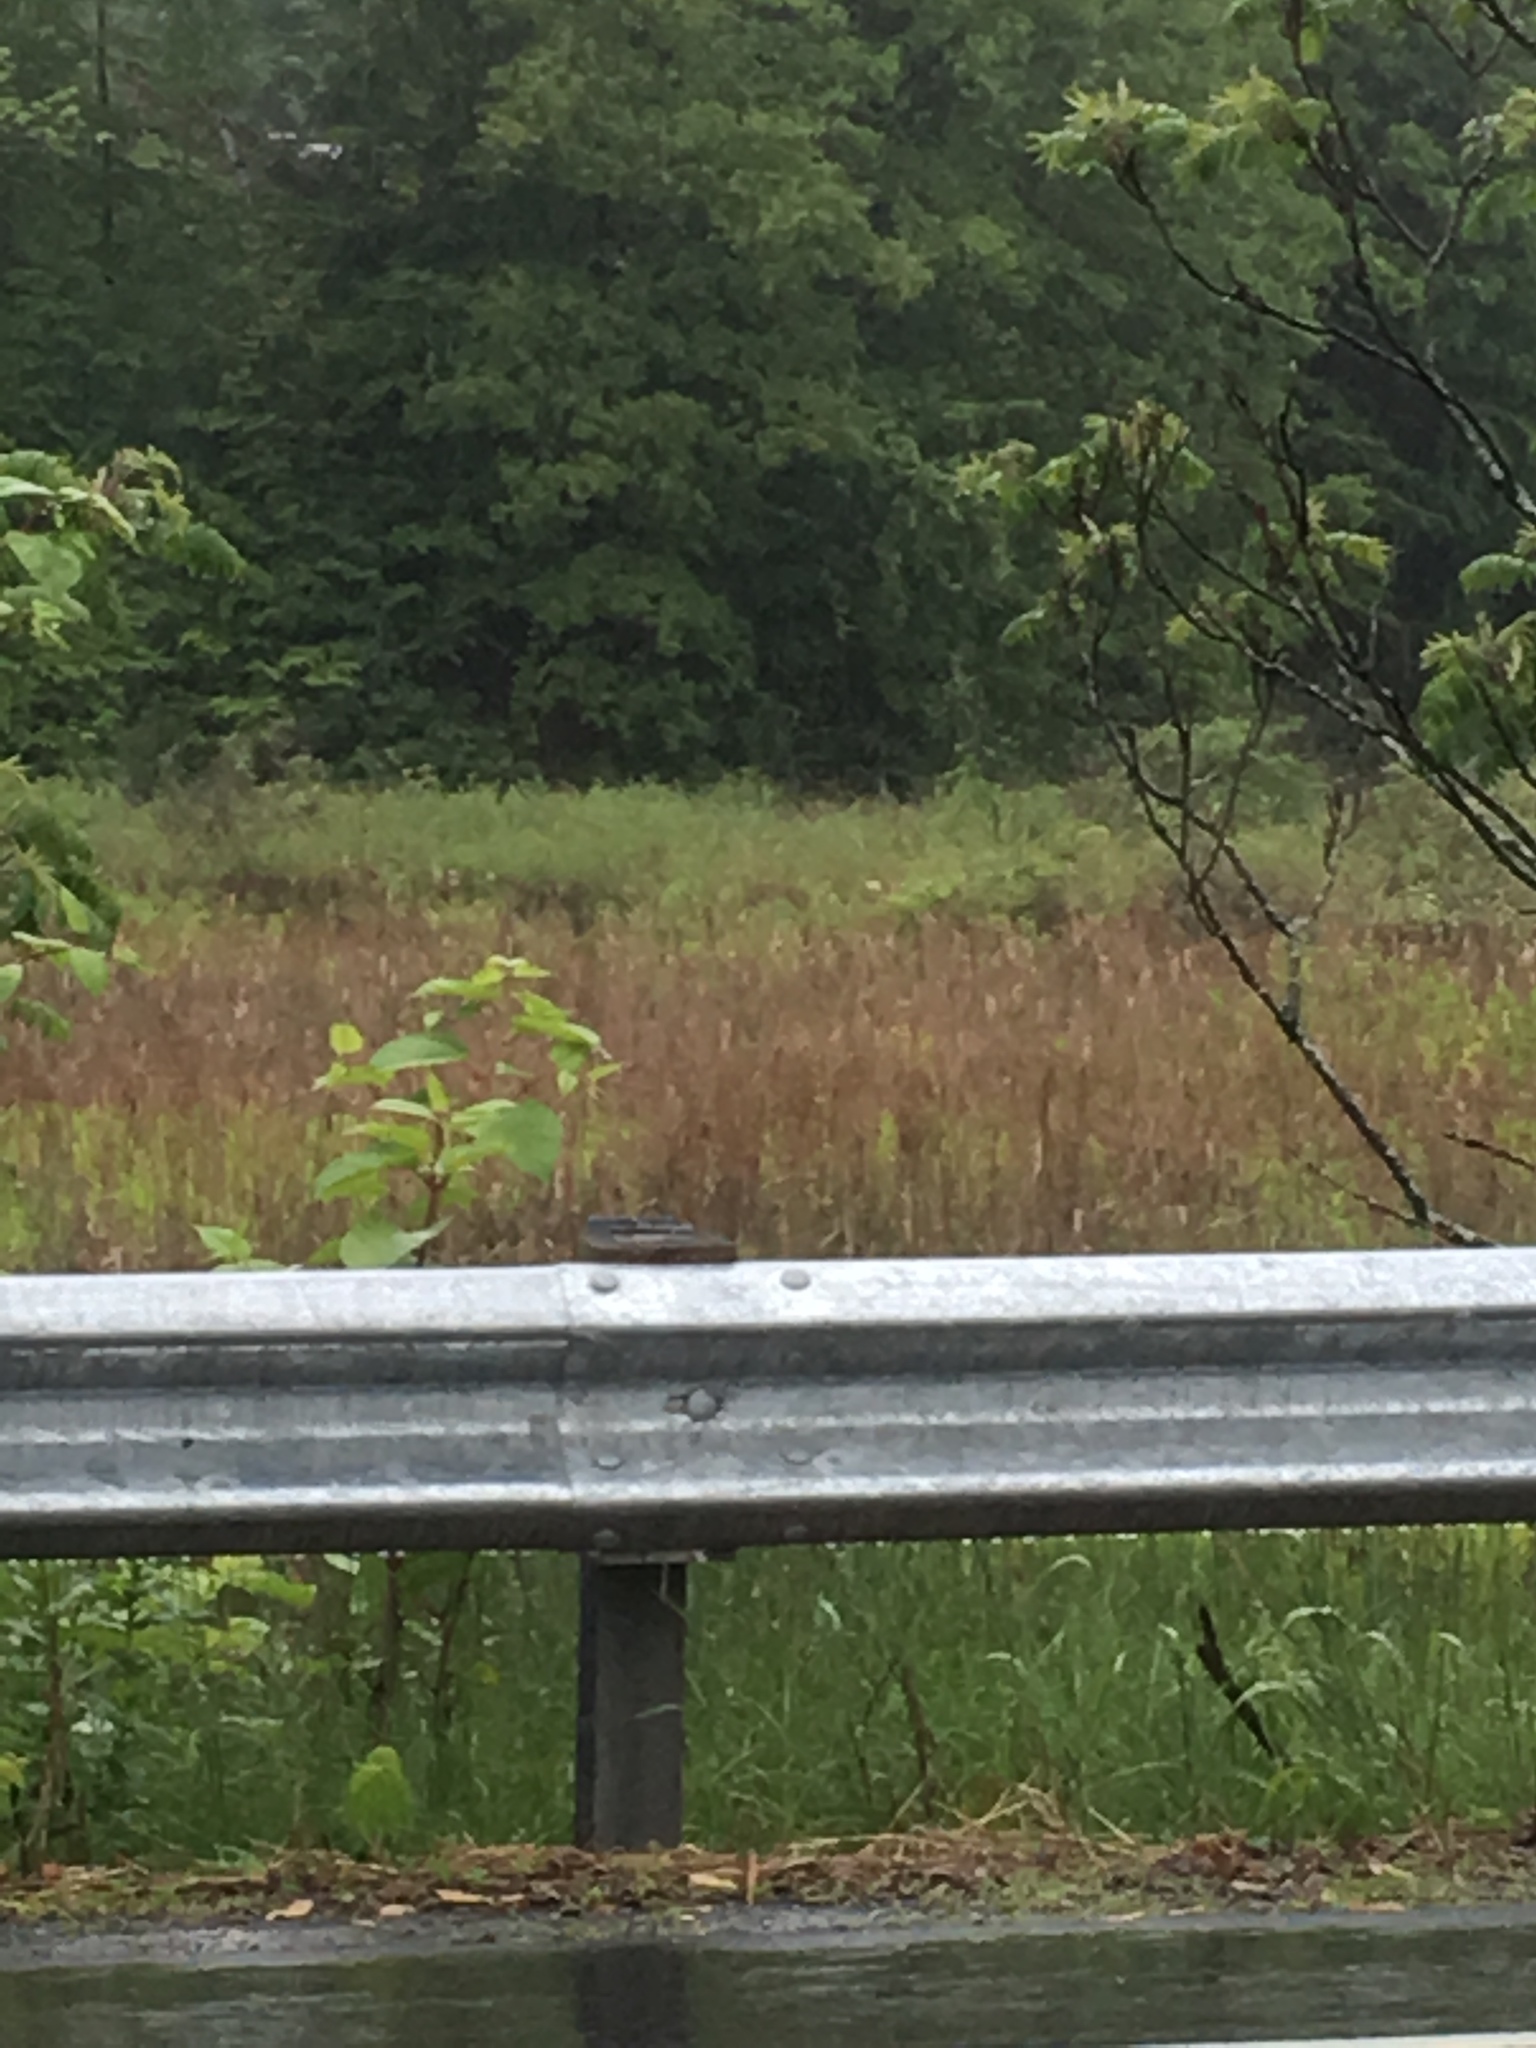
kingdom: Plantae
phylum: Tracheophyta
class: Liliopsida
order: Poales
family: Typhaceae
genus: Typha
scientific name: Typha
